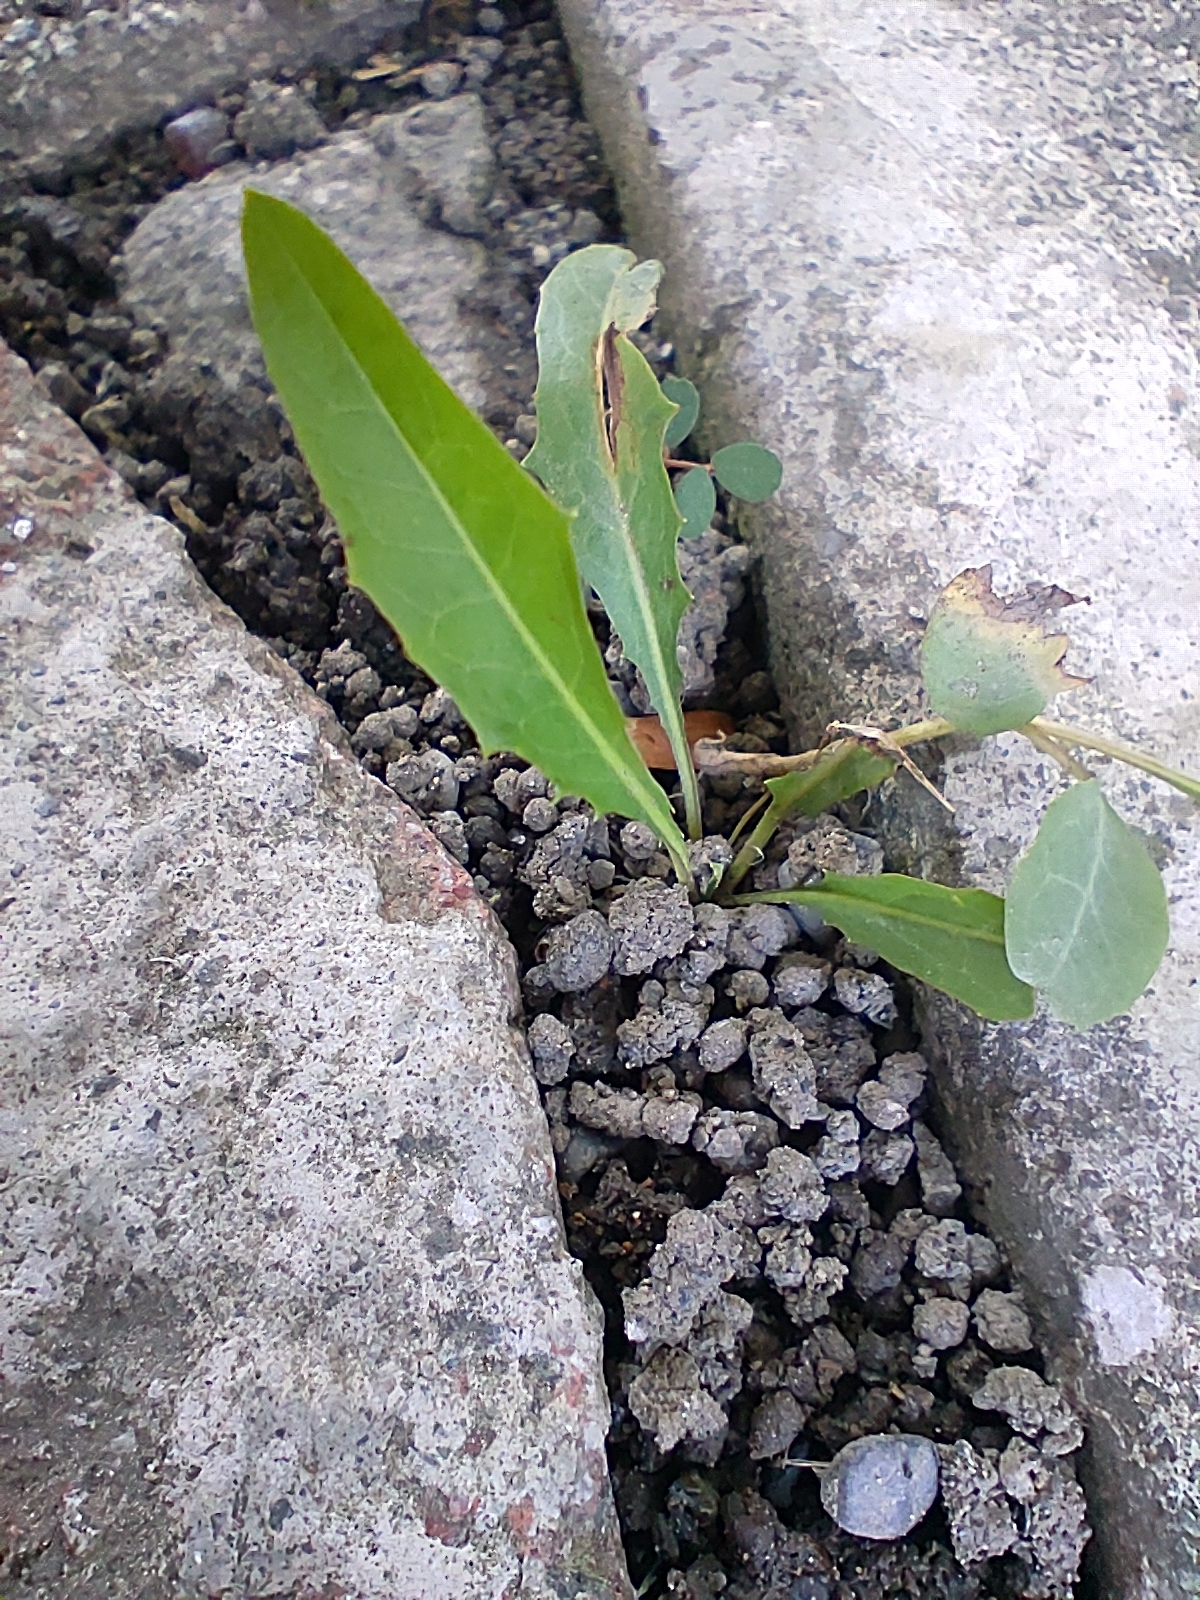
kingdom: Plantae
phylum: Tracheophyta
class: Magnoliopsida
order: Asterales
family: Asteraceae
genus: Ixeris
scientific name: Ixeris chinensis
